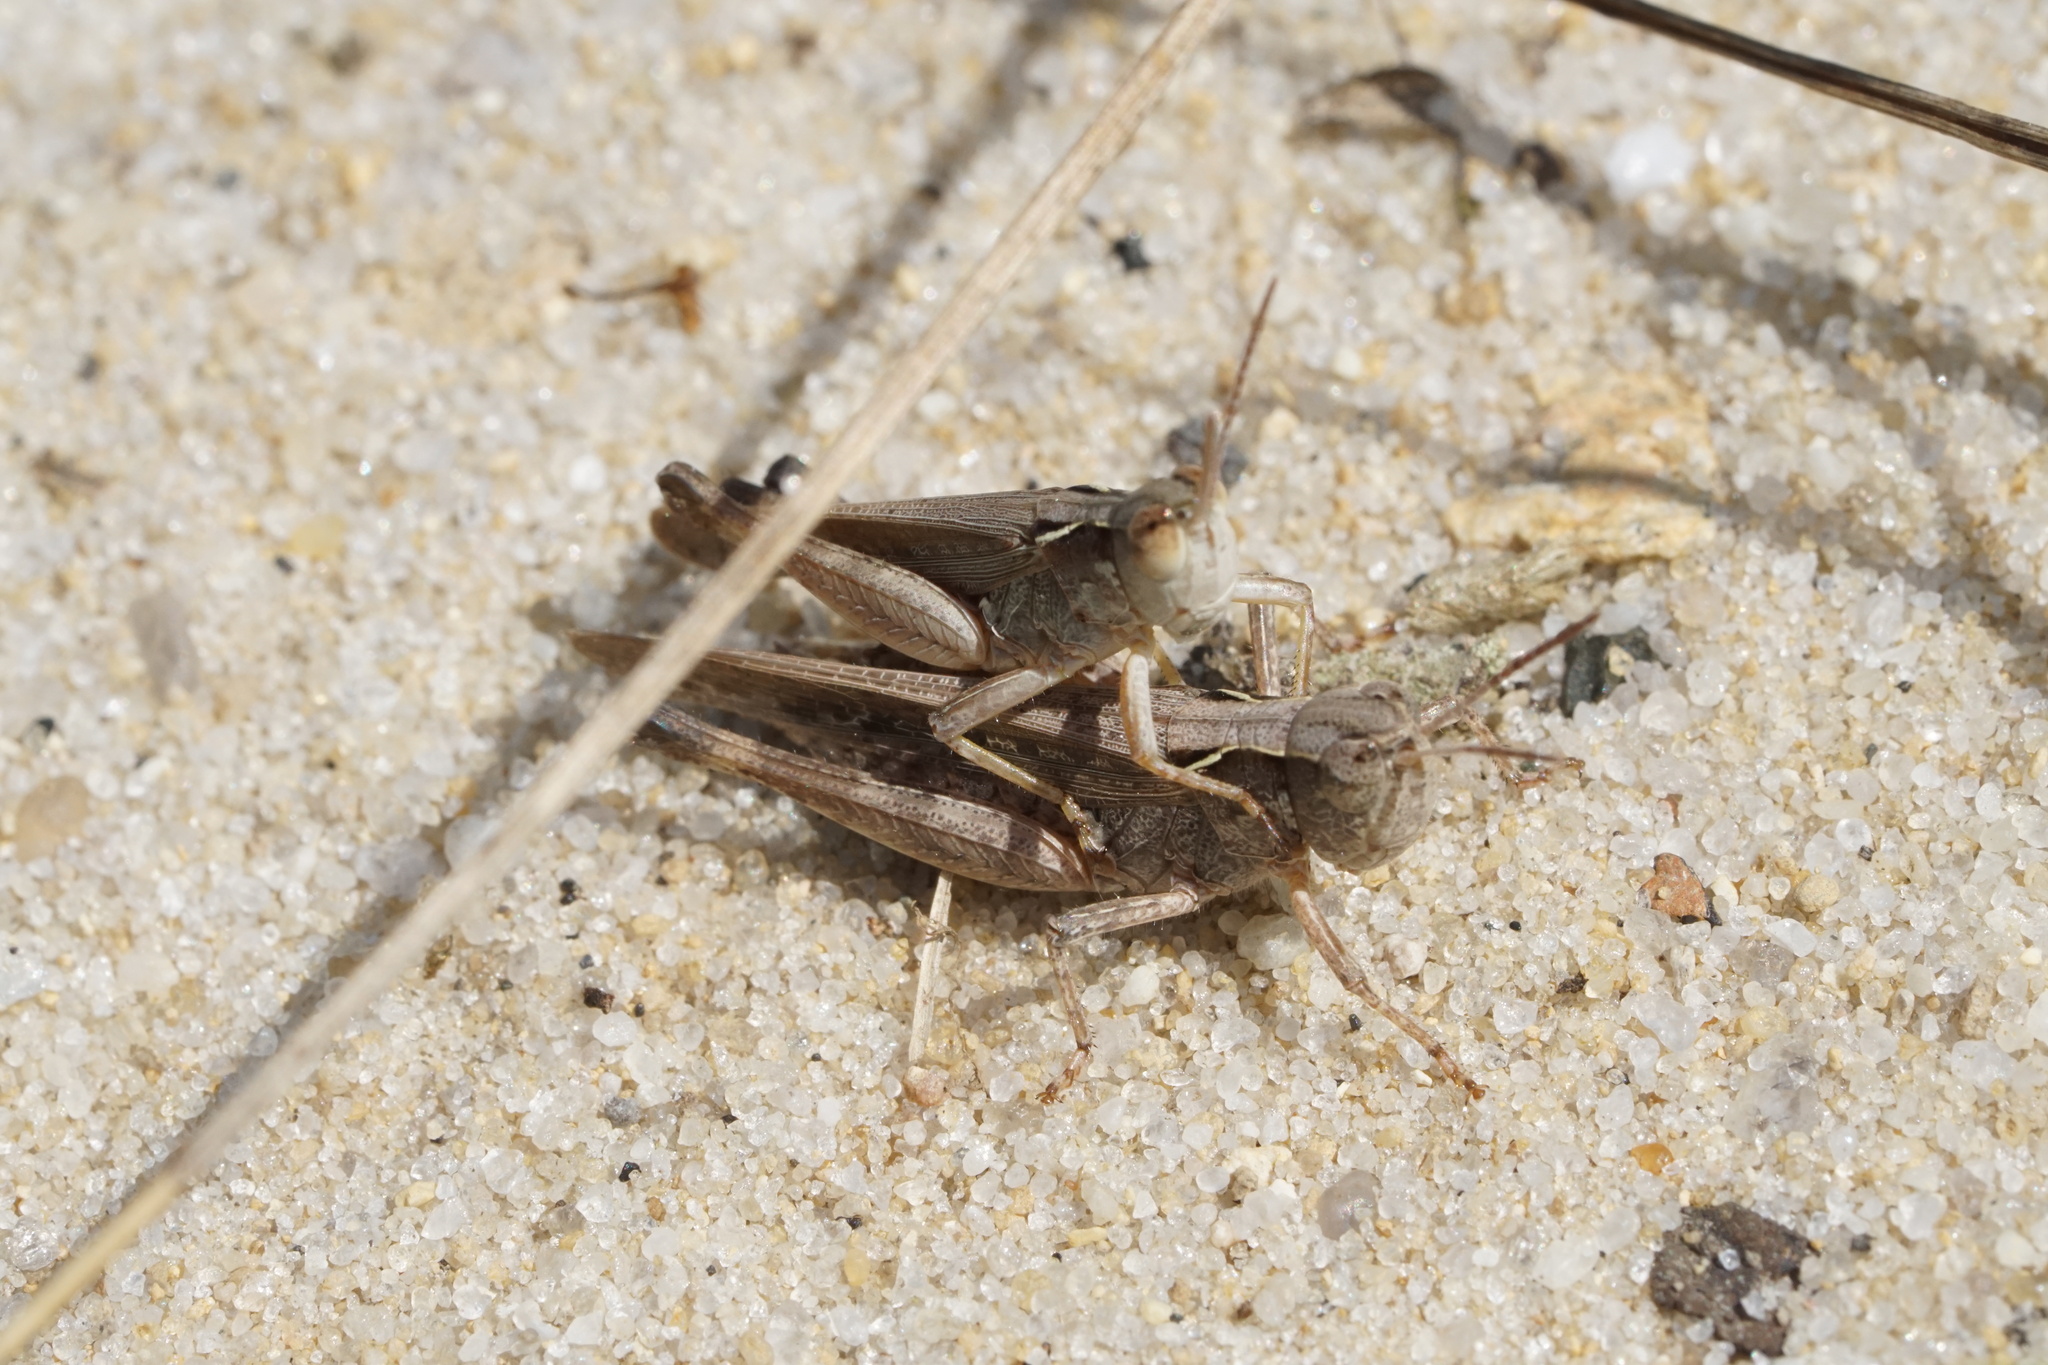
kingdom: Animalia
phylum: Arthropoda
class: Insecta
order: Orthoptera
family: Acrididae
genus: Orphulella
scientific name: Orphulella pelidna
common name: Spotted-wing grasshopper
